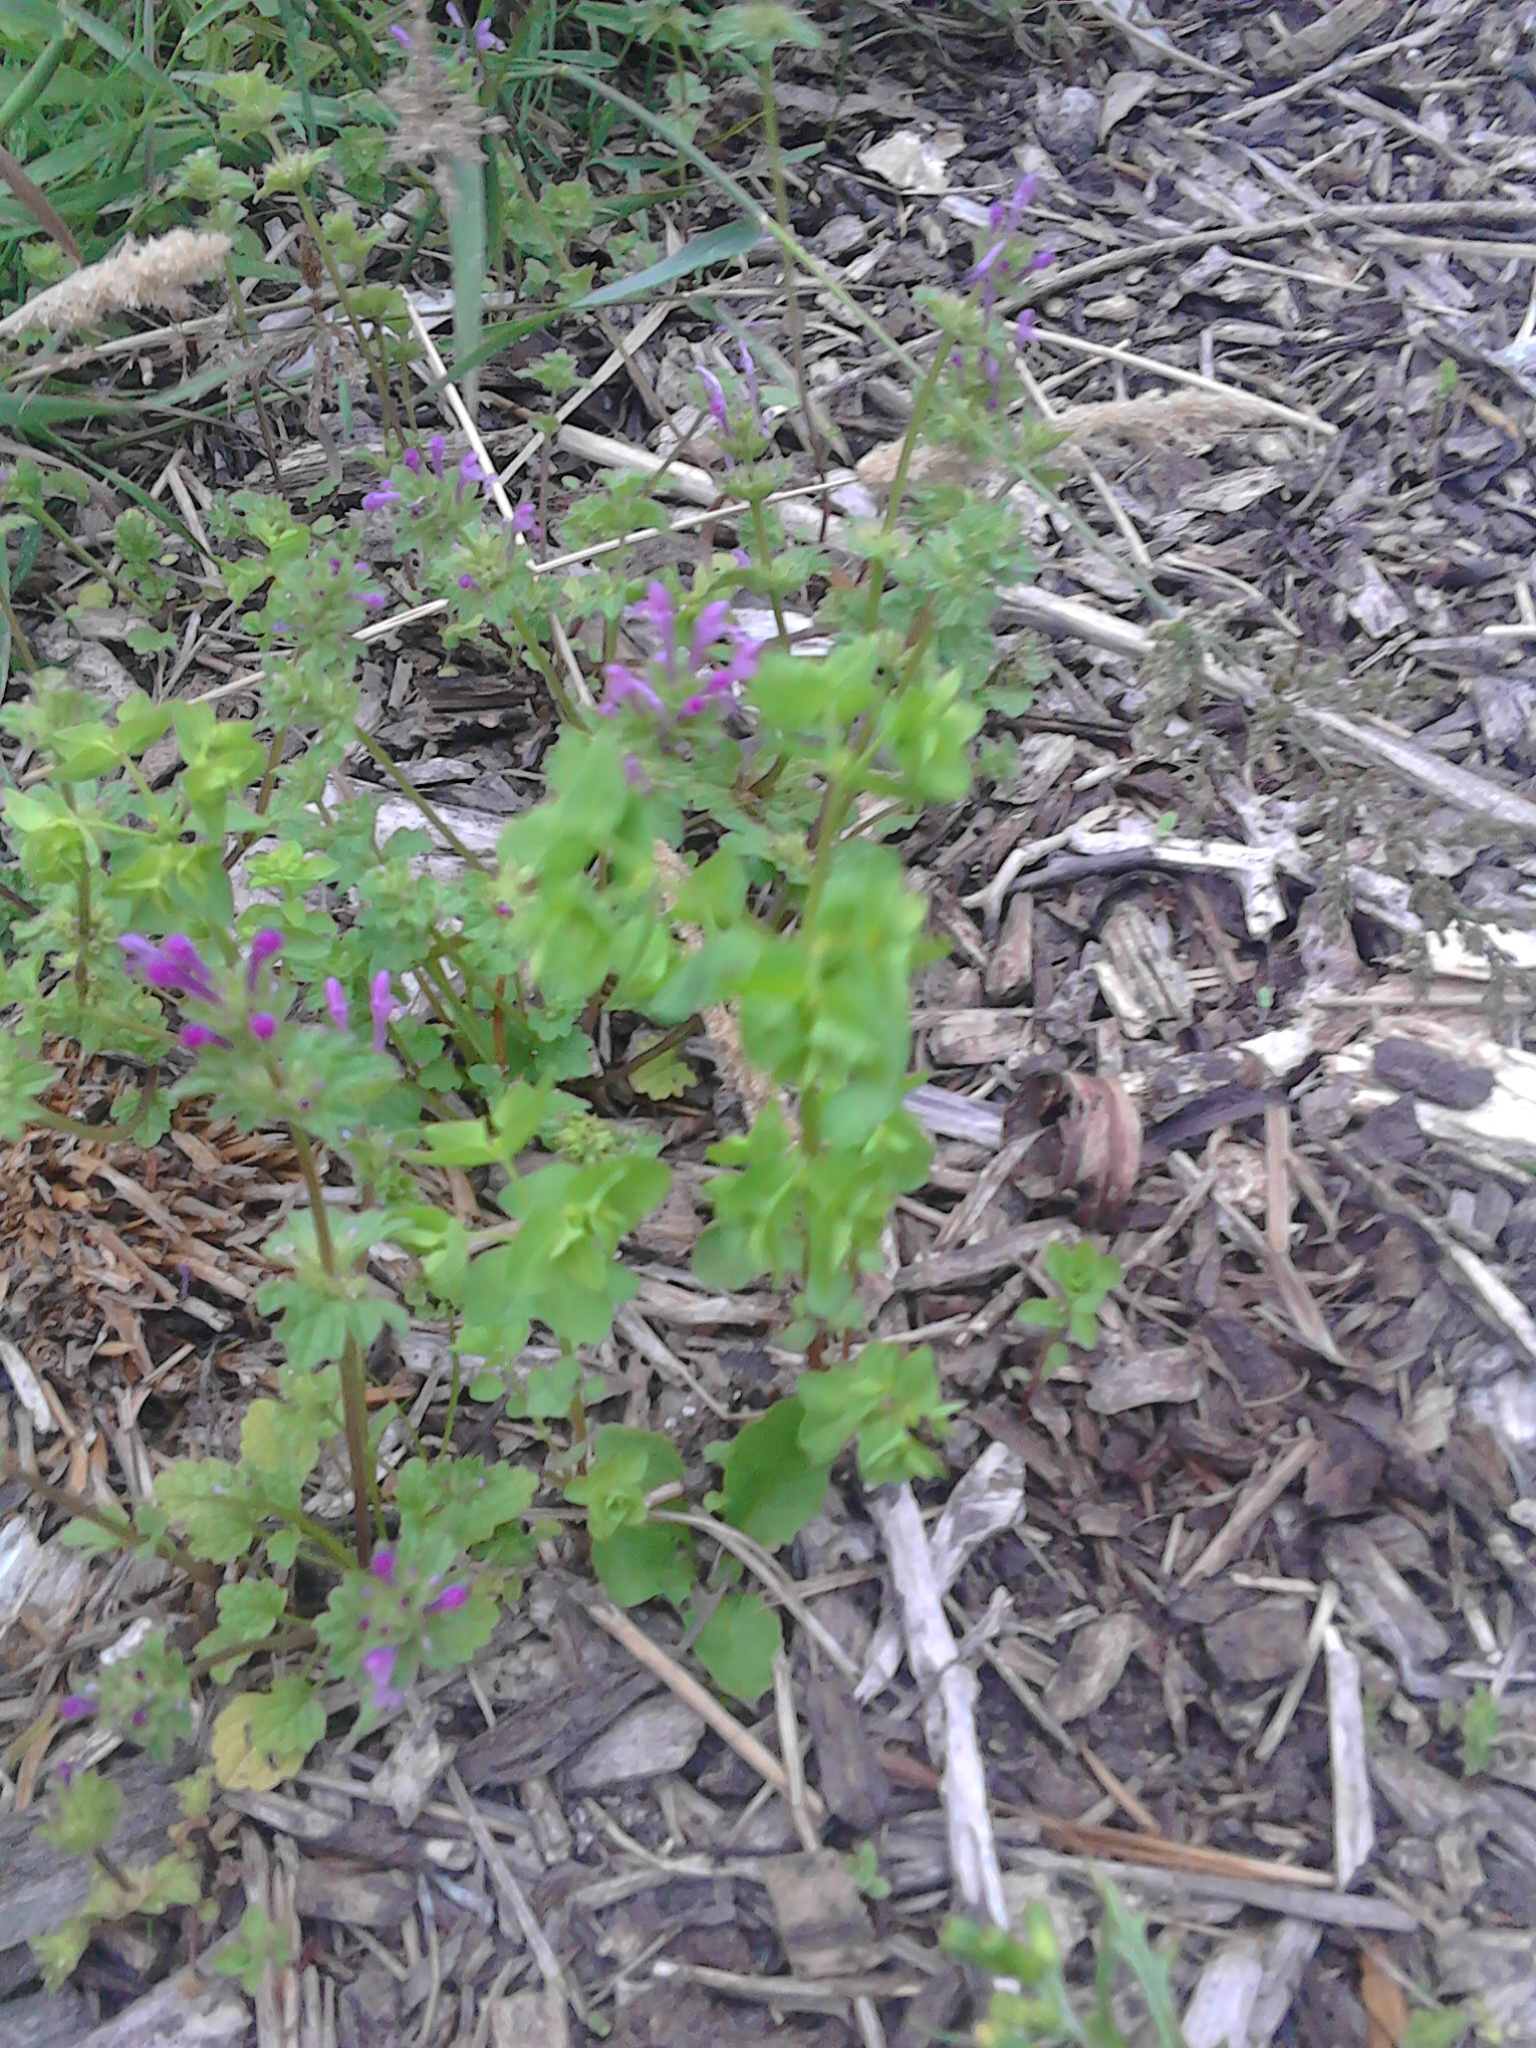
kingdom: Plantae
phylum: Tracheophyta
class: Magnoliopsida
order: Malpighiales
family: Euphorbiaceae
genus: Euphorbia
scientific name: Euphorbia peplus
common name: Petty spurge
